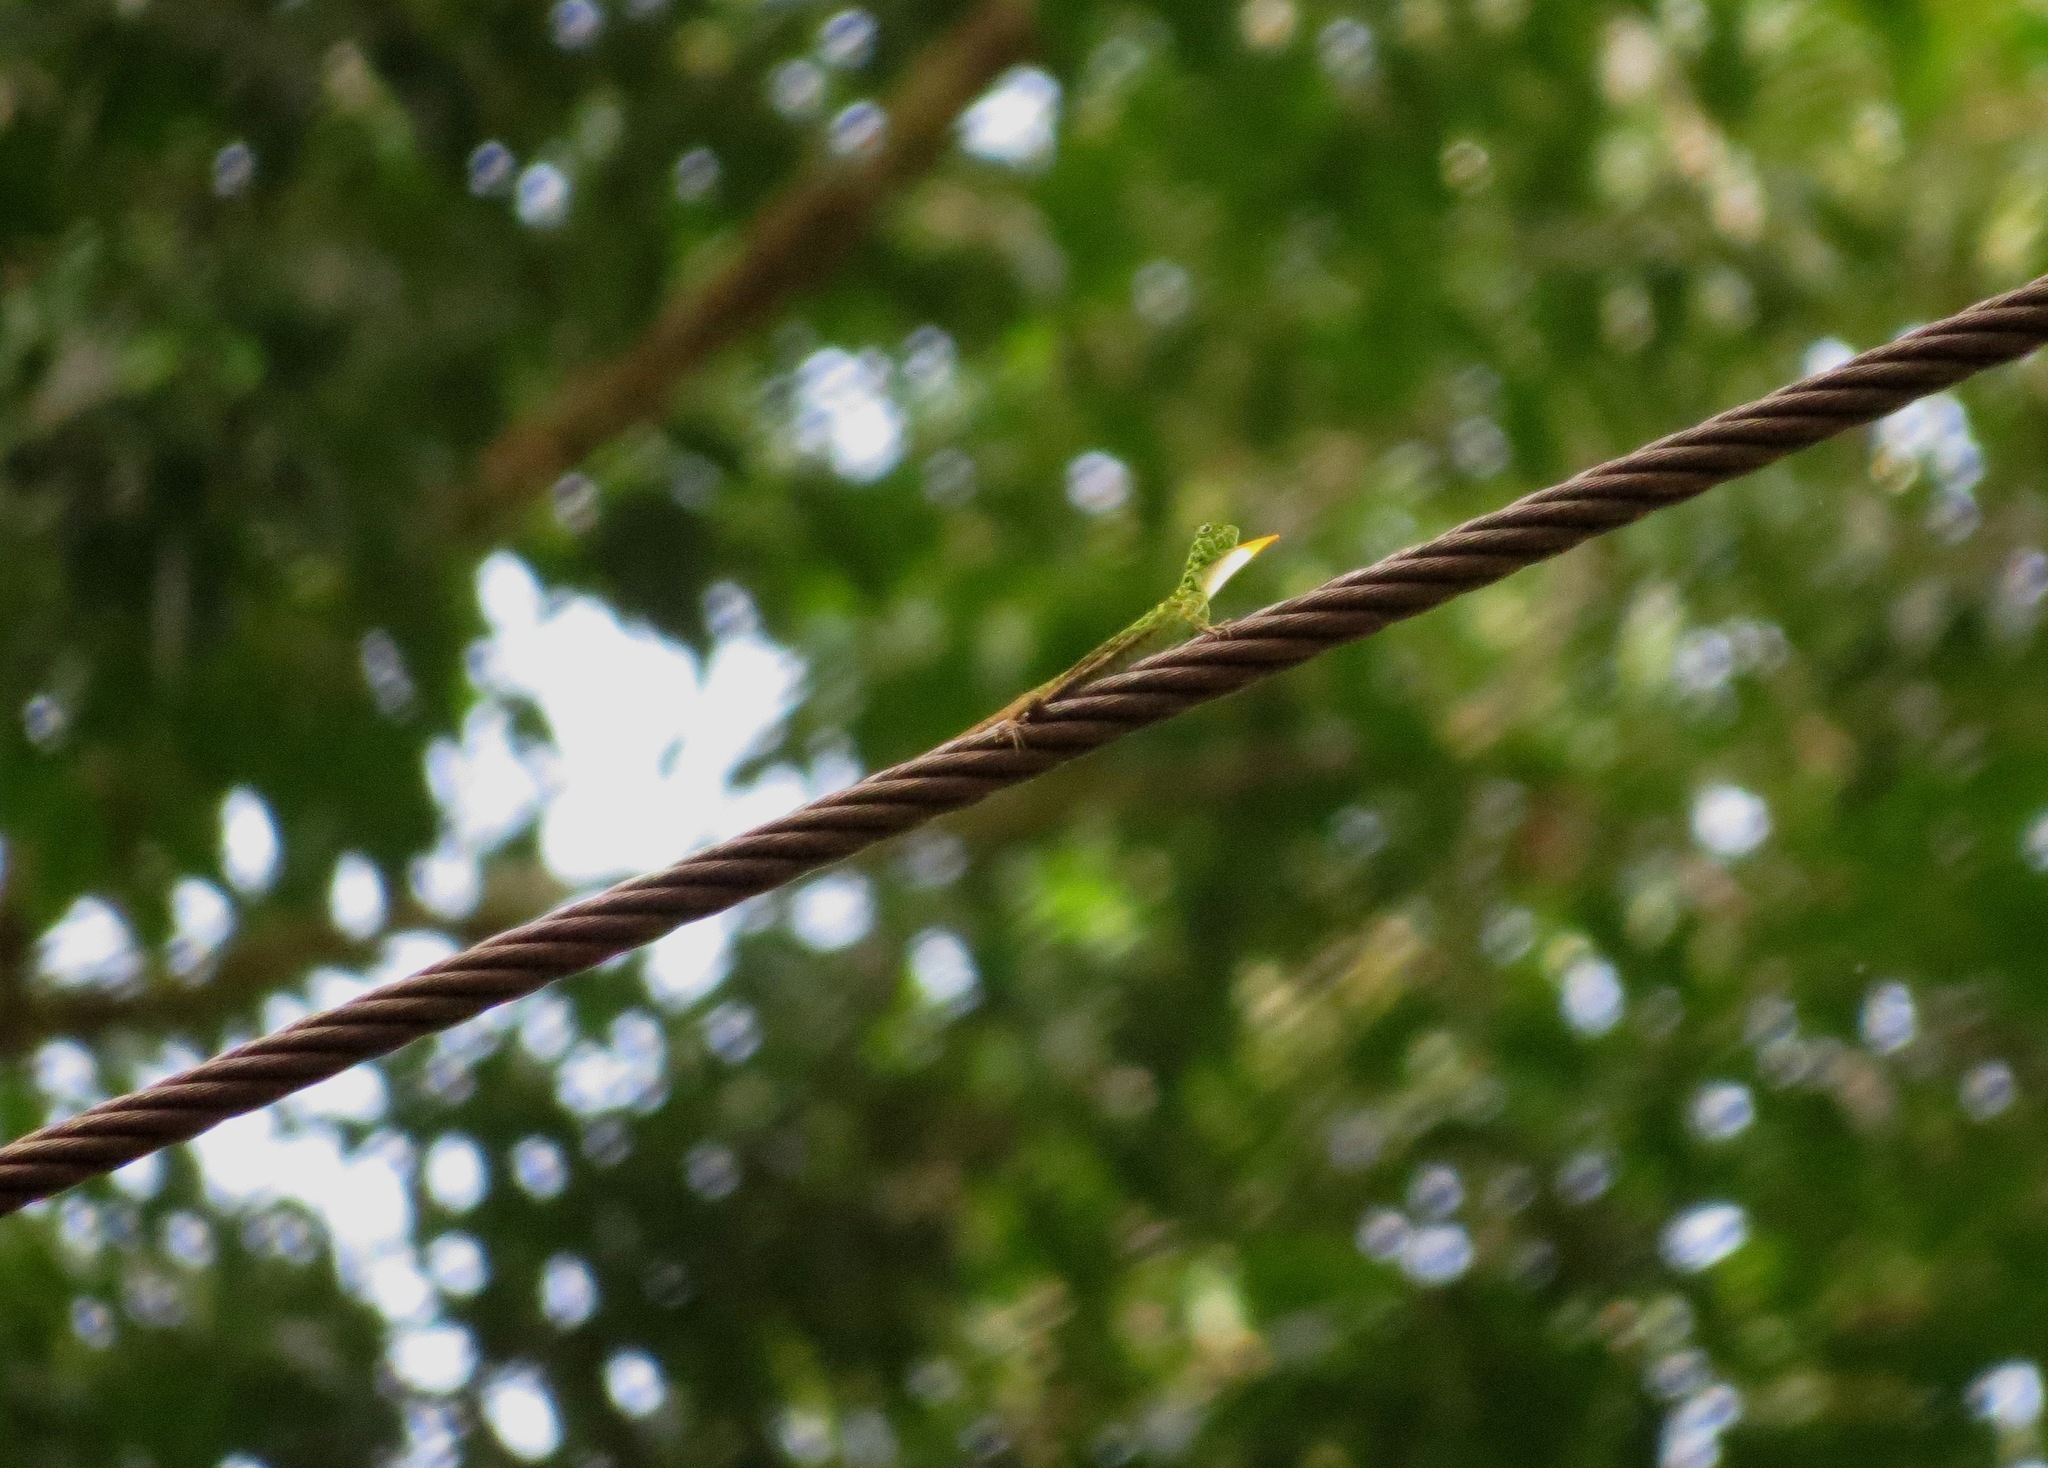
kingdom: Animalia
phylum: Chordata
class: Squamata
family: Agamidae
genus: Draco
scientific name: Draco cornutus
